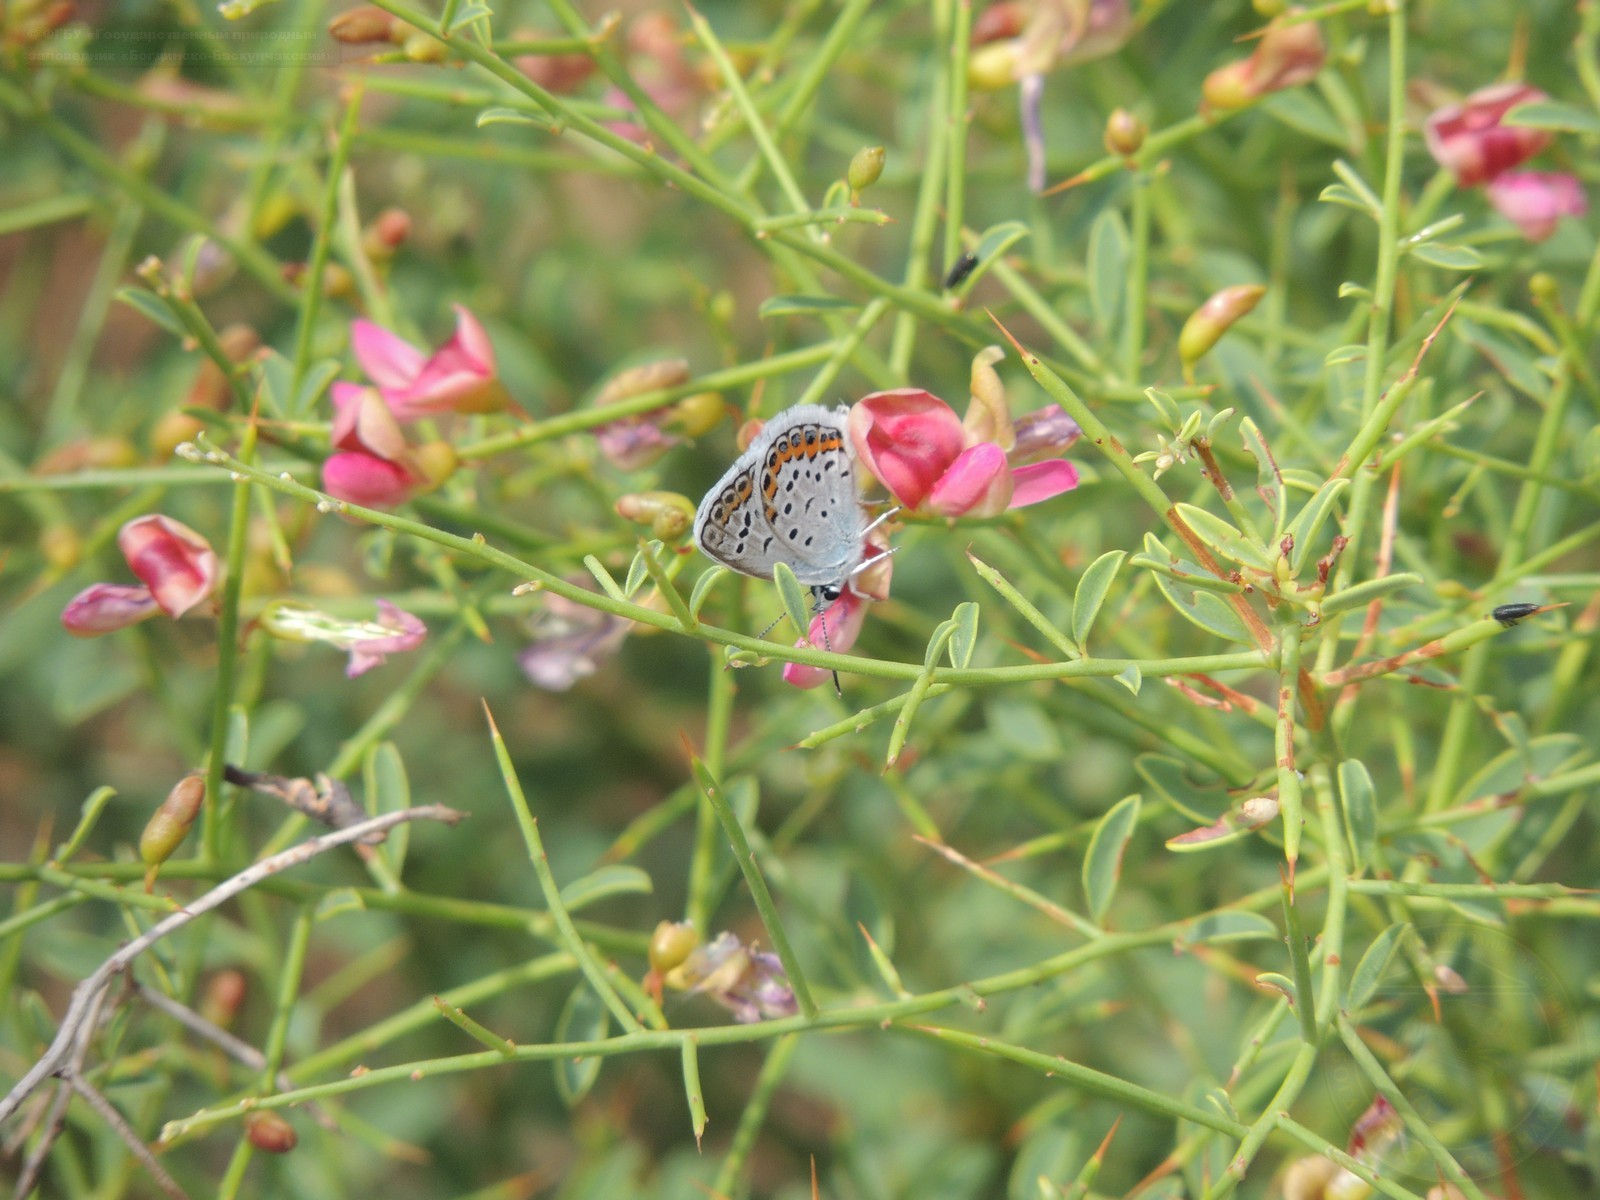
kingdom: Plantae
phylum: Tracheophyta
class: Magnoliopsida
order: Fabales
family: Fabaceae
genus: Alhagi
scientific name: Alhagi pseudalhagi
